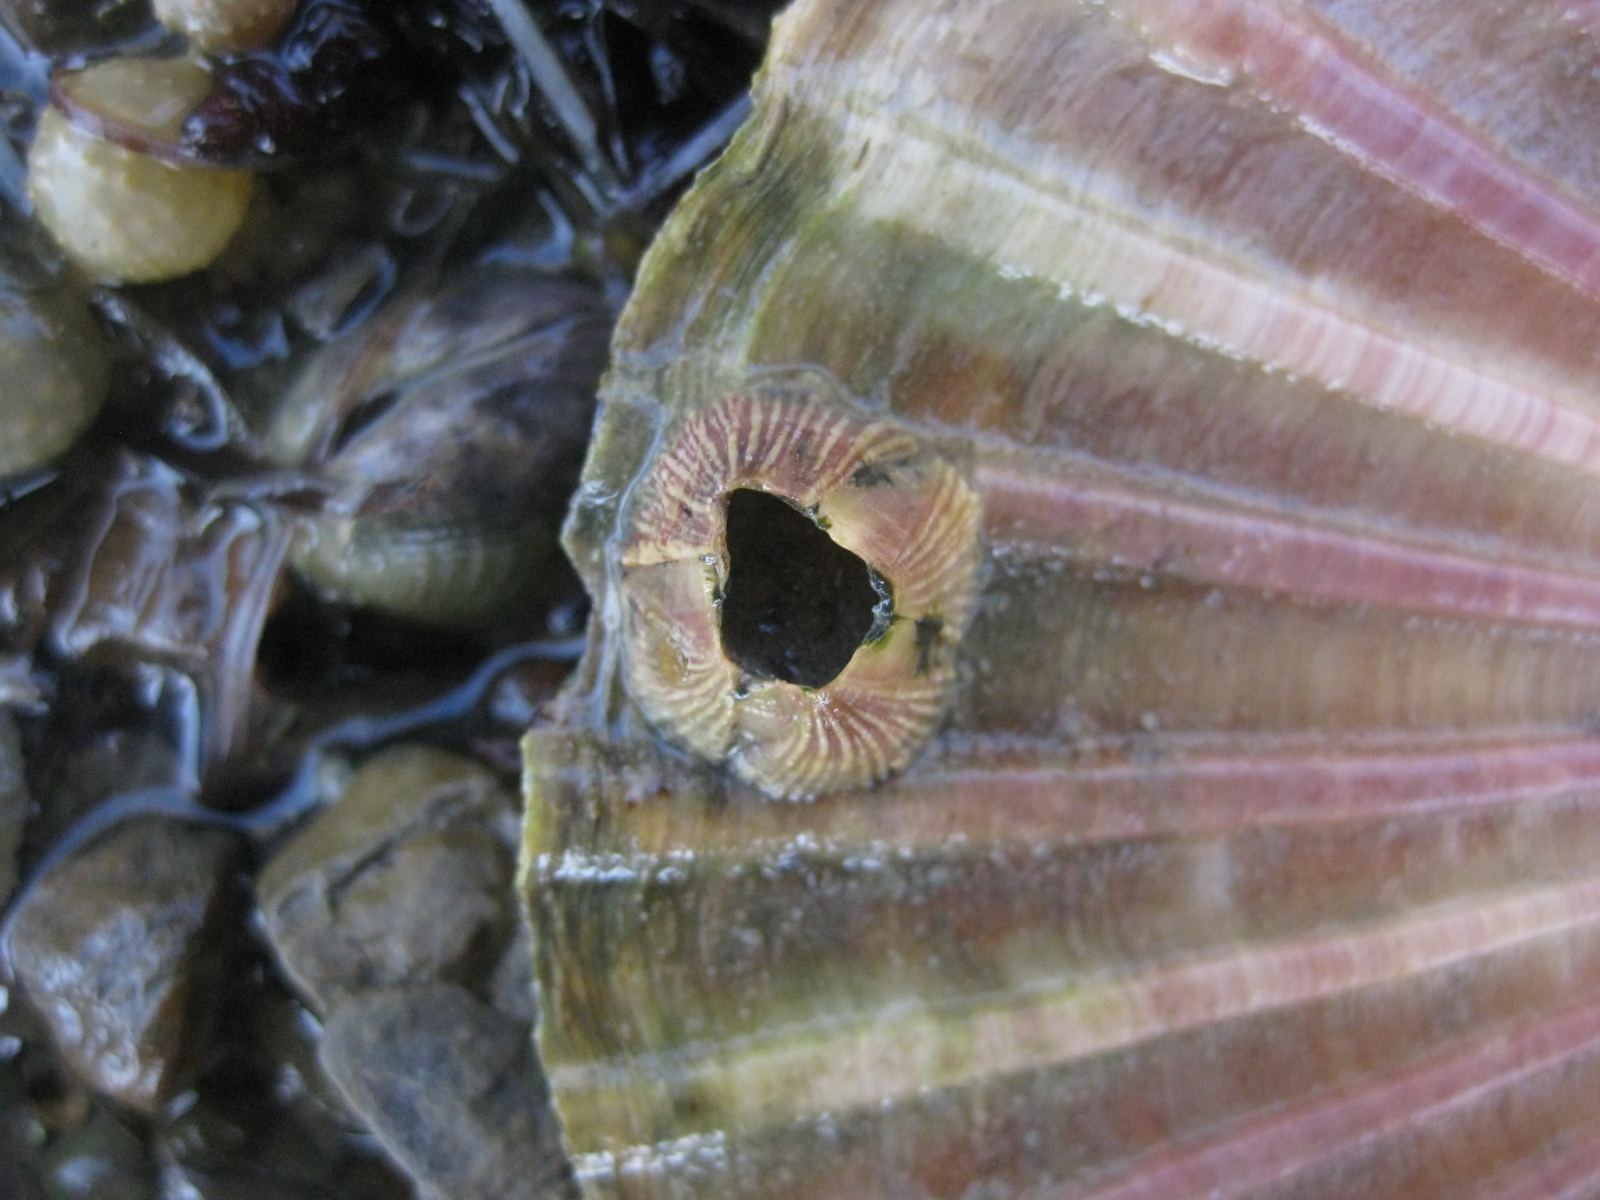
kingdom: Animalia
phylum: Arthropoda
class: Maxillopoda
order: Sessilia
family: Balanidae
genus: Balanus
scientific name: Balanus trigonus
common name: Triangle barnacle
